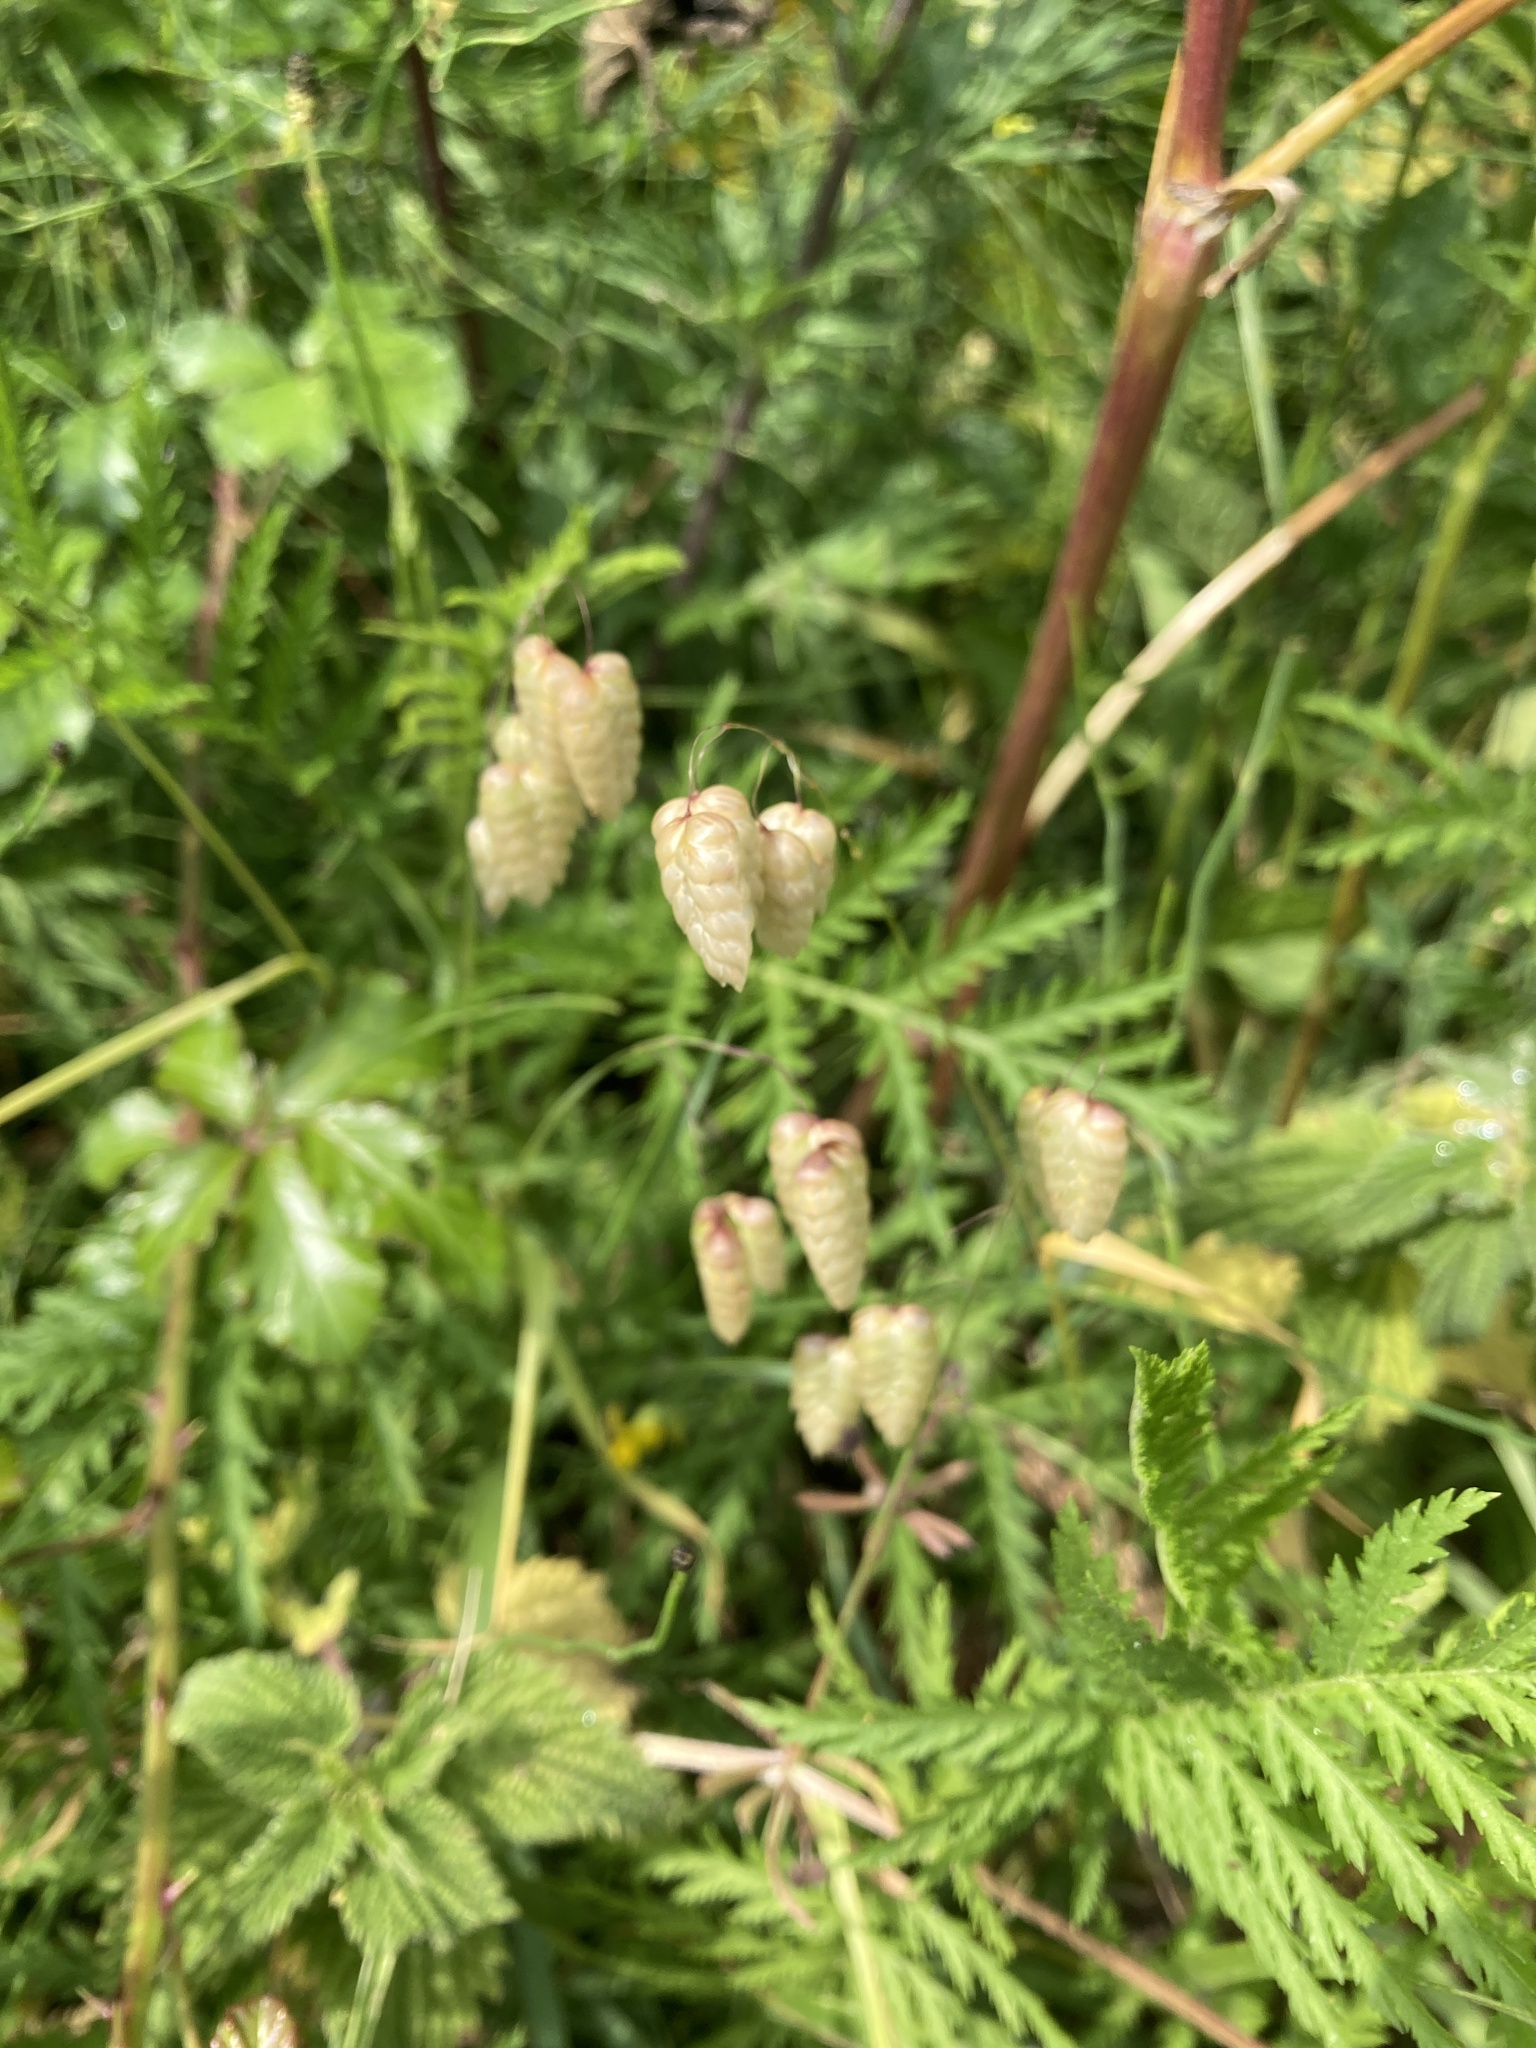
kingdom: Plantae
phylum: Tracheophyta
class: Liliopsida
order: Poales
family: Poaceae
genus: Briza
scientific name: Briza maxima
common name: Big quakinggrass
